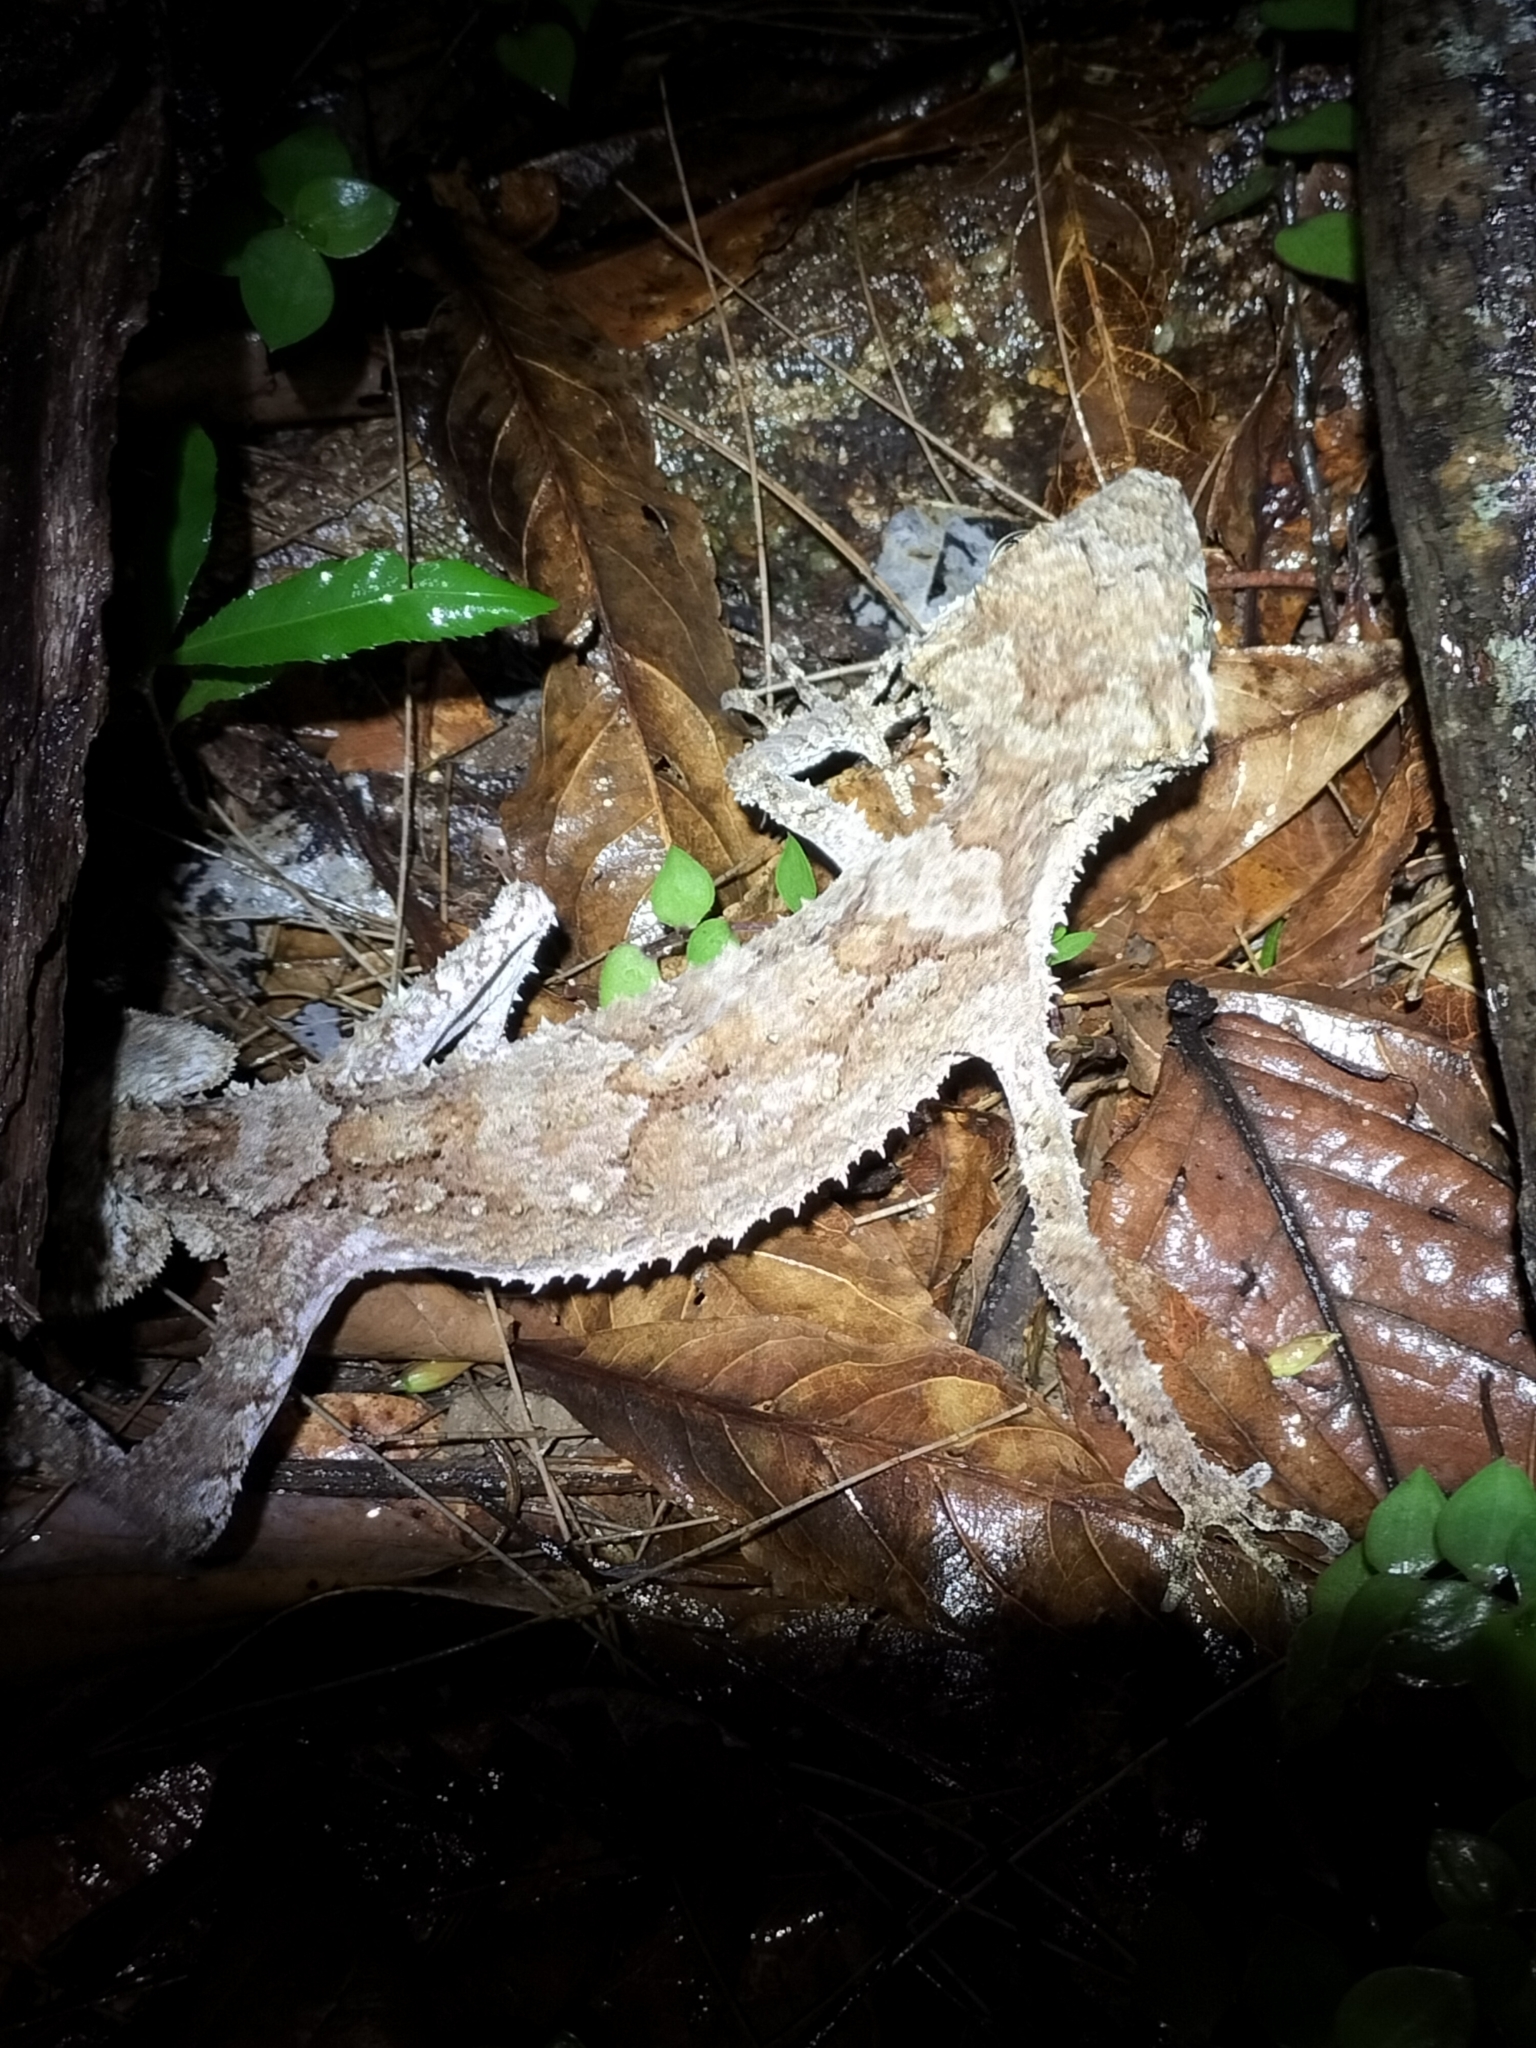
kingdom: Animalia
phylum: Chordata
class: Squamata
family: Carphodactylidae
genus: Saltuarius
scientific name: Saltuarius cornutus
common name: Leaf-tailed gecko
